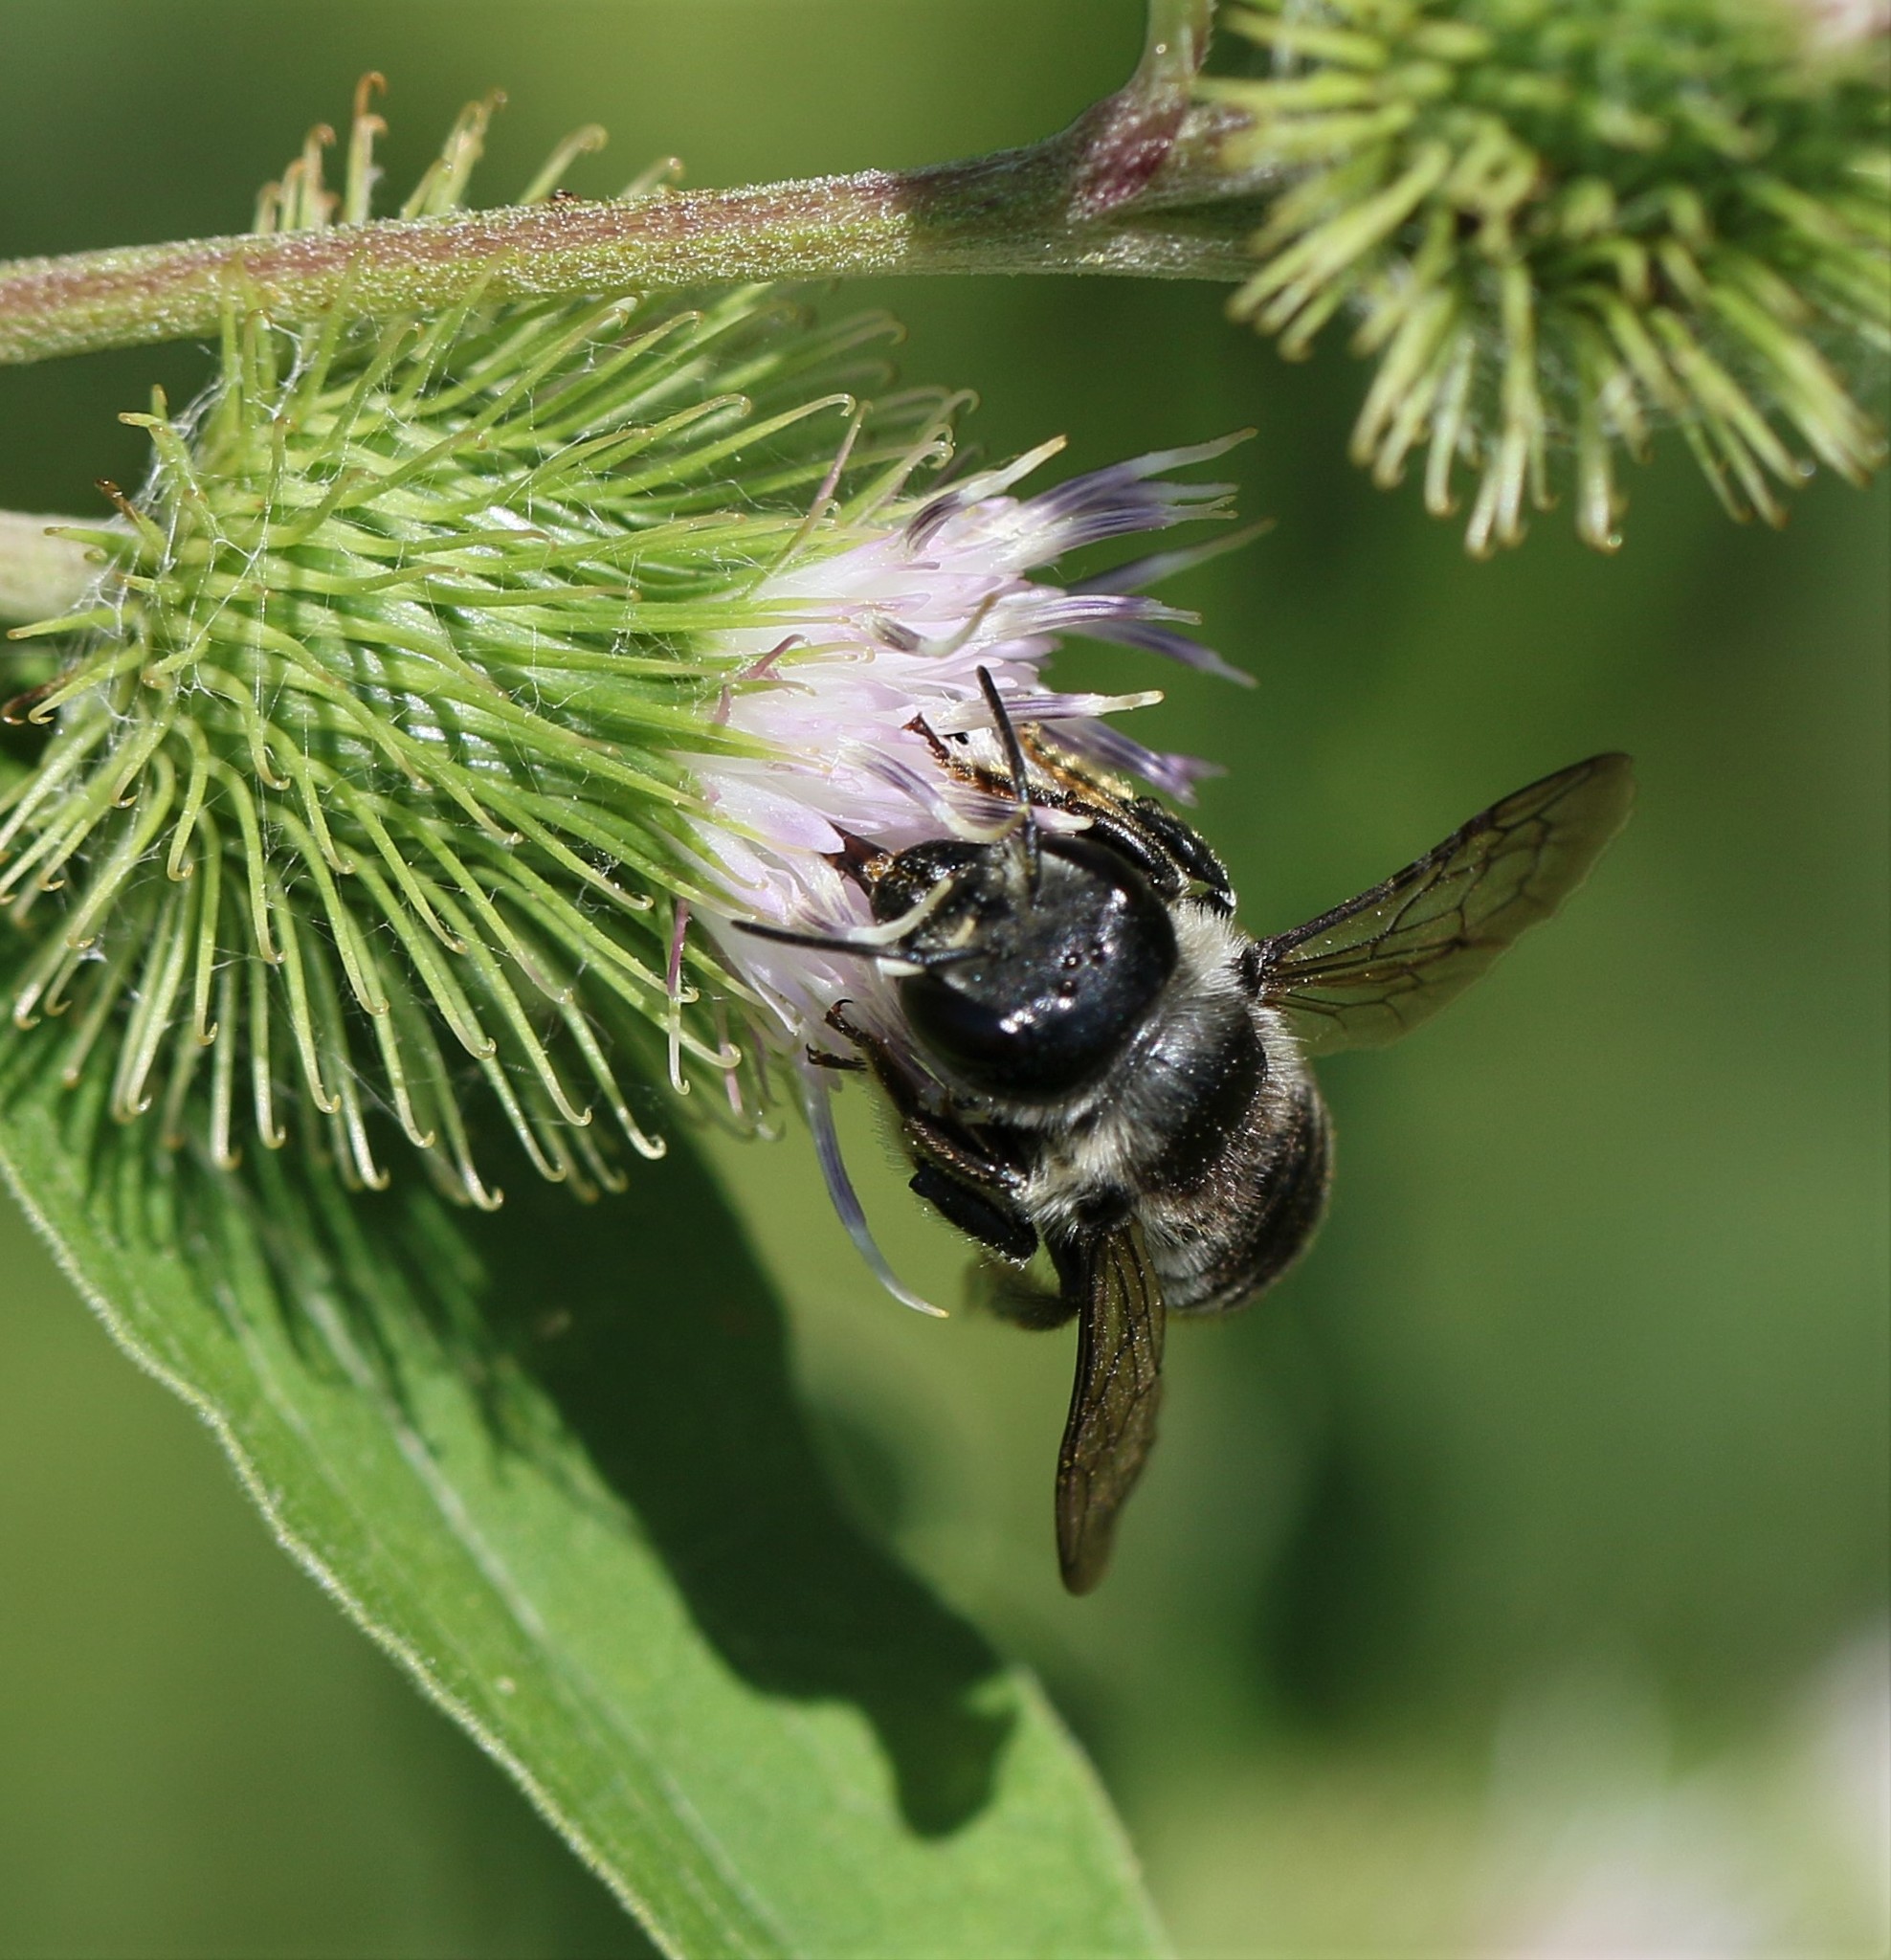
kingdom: Animalia
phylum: Arthropoda
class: Insecta
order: Hymenoptera
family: Megachilidae
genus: Megachile
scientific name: Megachile inermis
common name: Unarmed leafcutter bee
